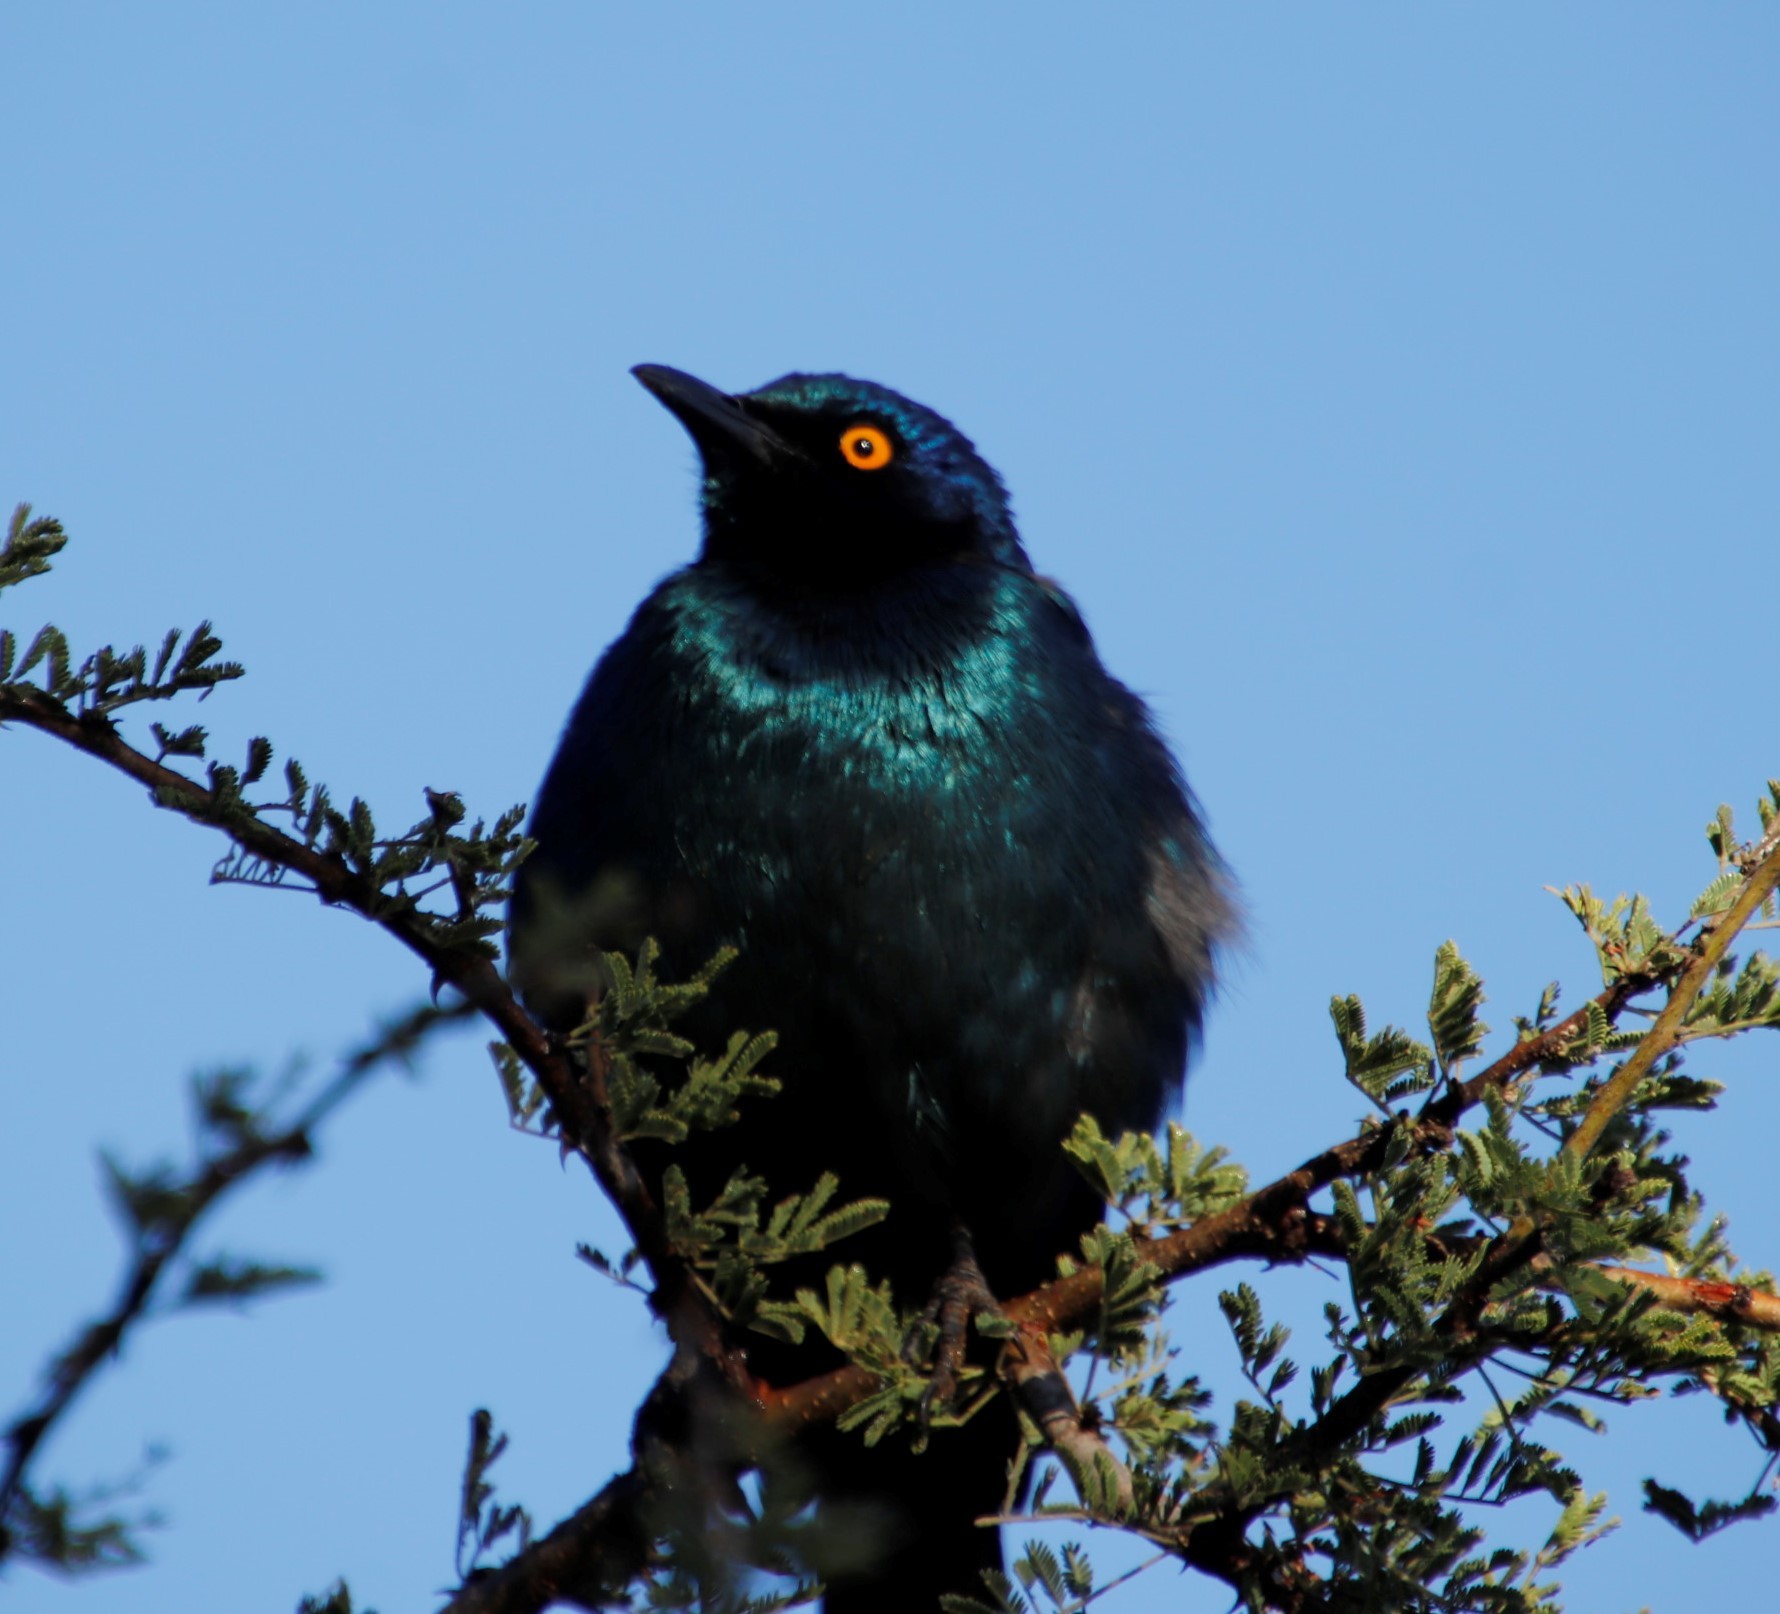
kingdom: Animalia
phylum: Chordata
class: Aves
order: Passeriformes
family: Sturnidae
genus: Lamprotornis
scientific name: Lamprotornis nitens
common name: Cape starling
